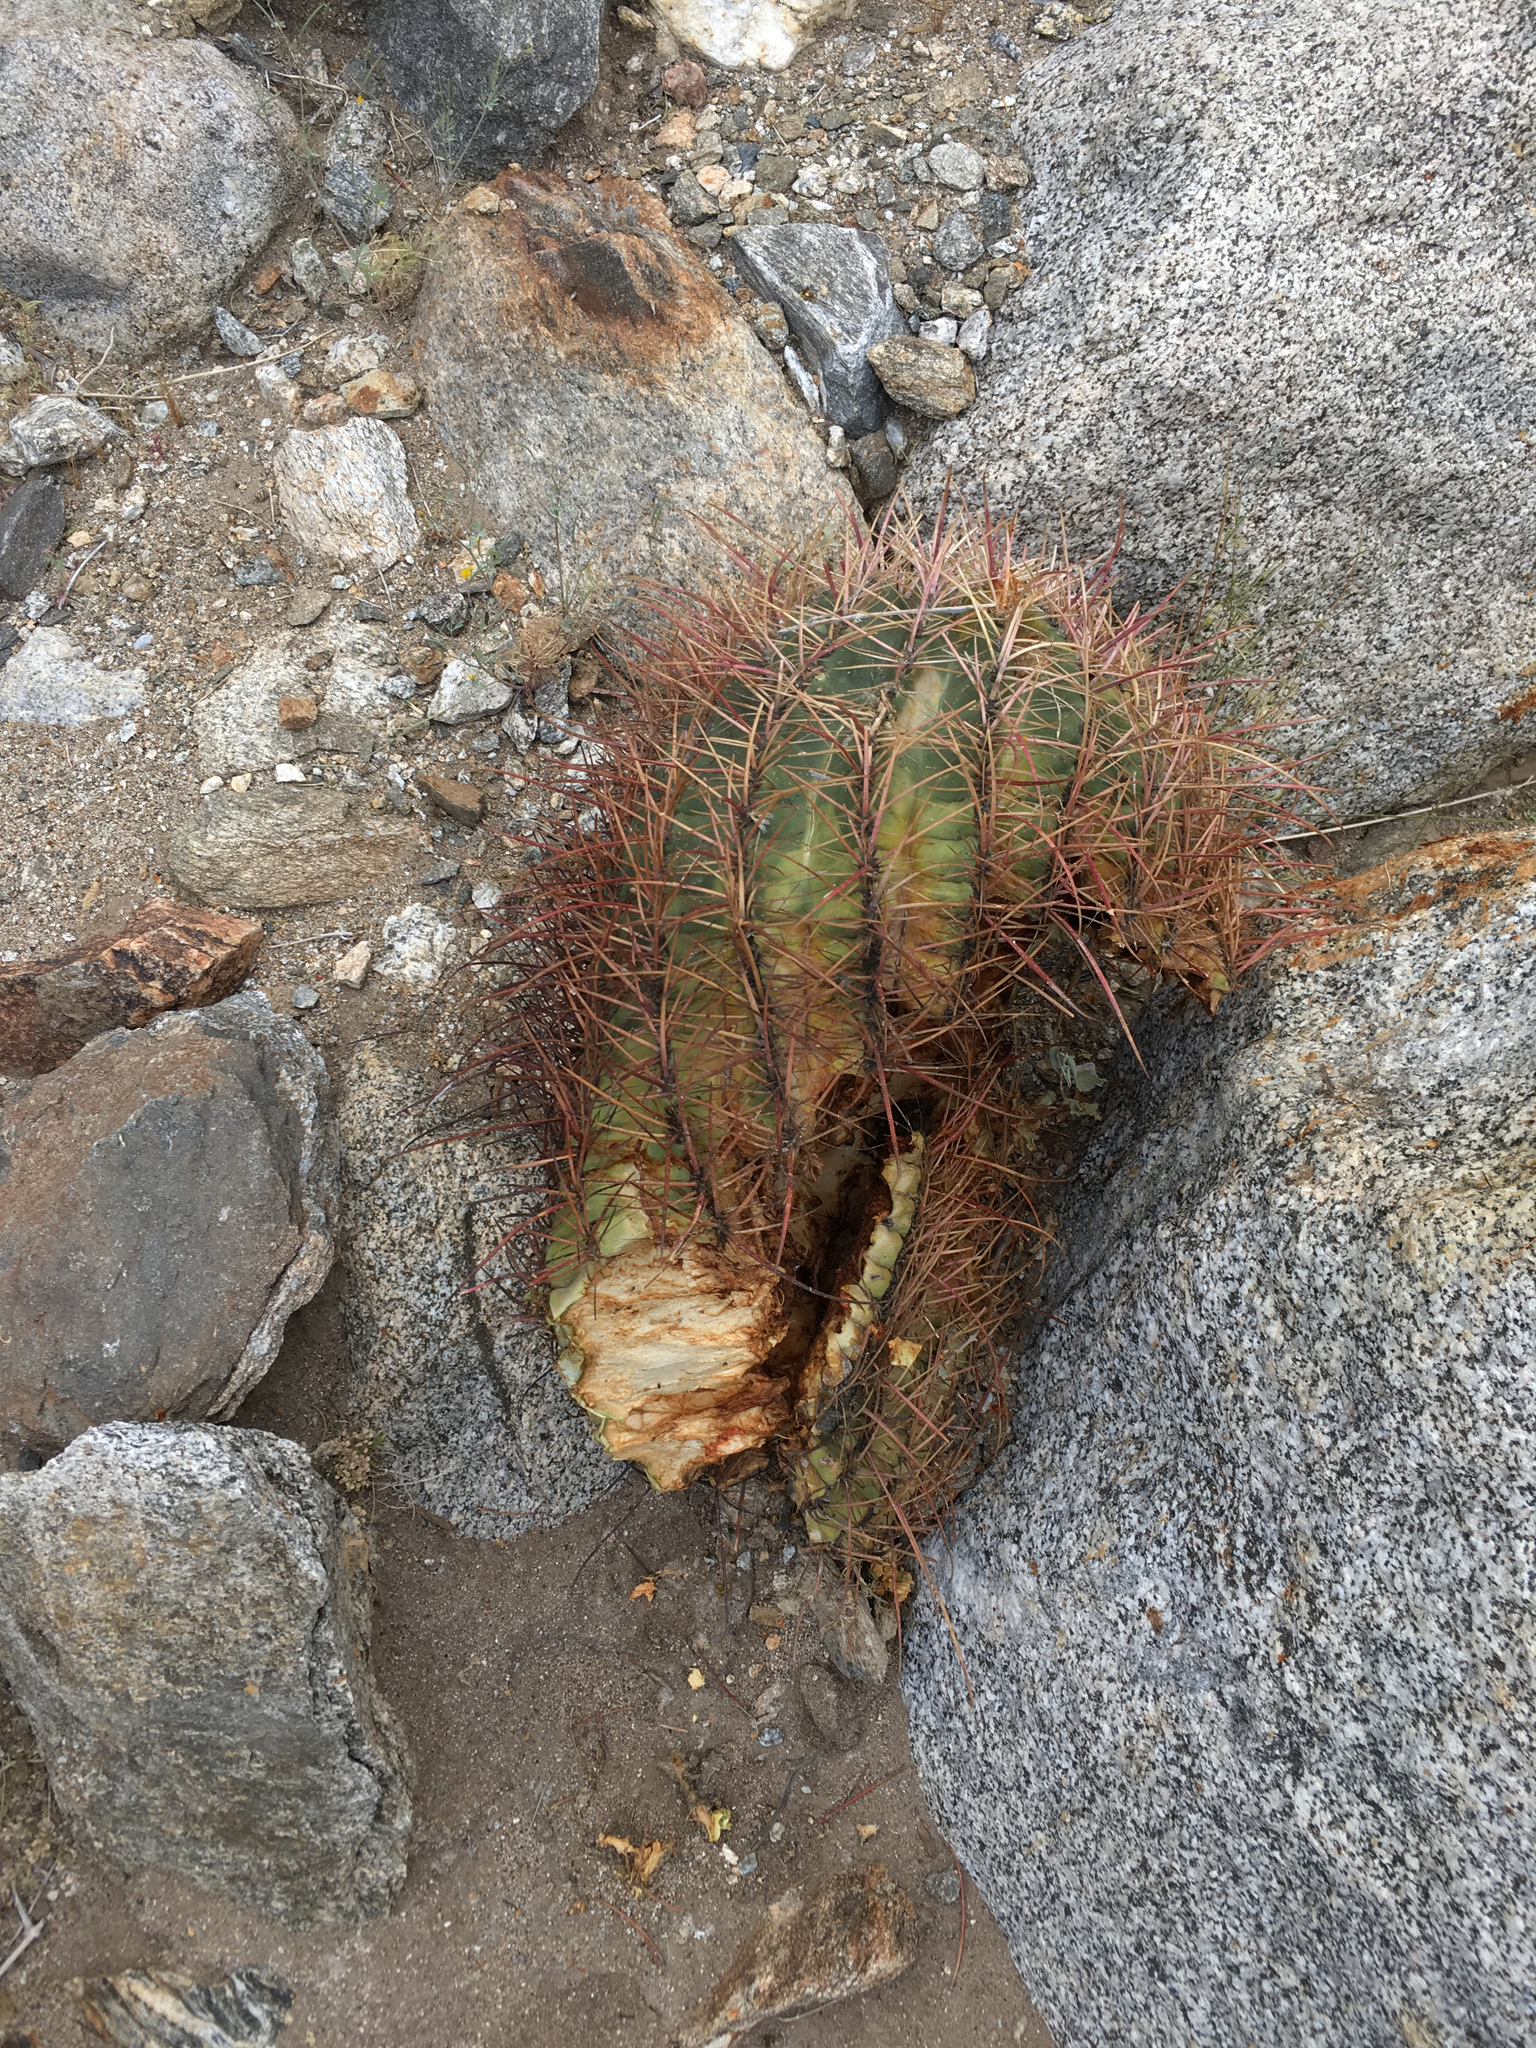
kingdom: Plantae
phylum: Tracheophyta
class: Magnoliopsida
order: Caryophyllales
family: Cactaceae
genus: Ferocactus
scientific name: Ferocactus cylindraceus
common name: California barrel cactus
